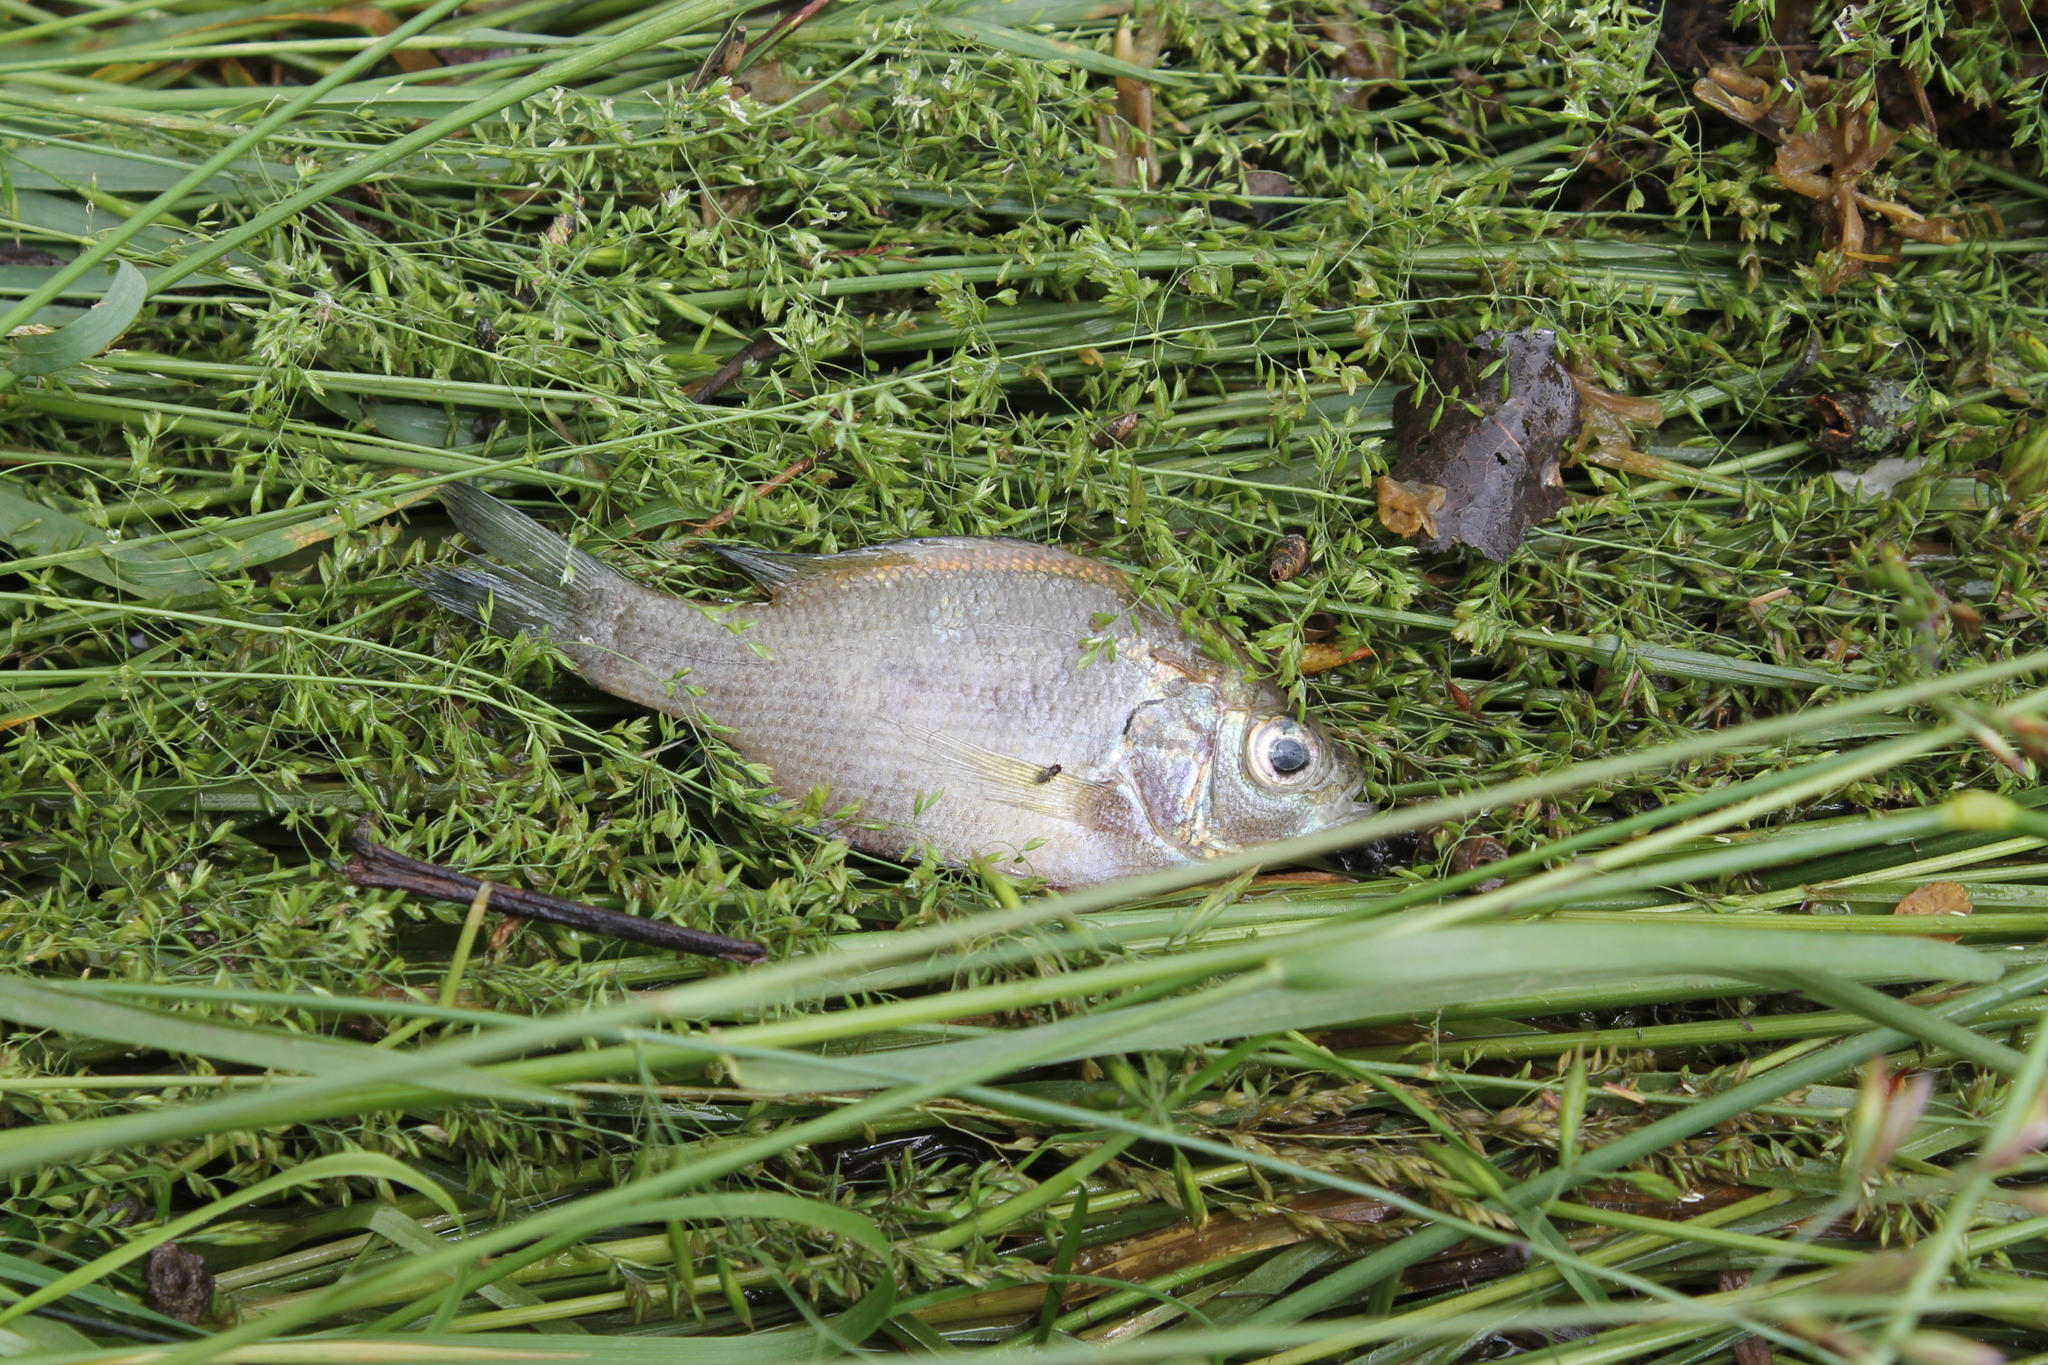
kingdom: Animalia
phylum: Chordata
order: Perciformes
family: Centrarchidae
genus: Lepomis
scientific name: Lepomis macrochirus
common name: Bluegill
